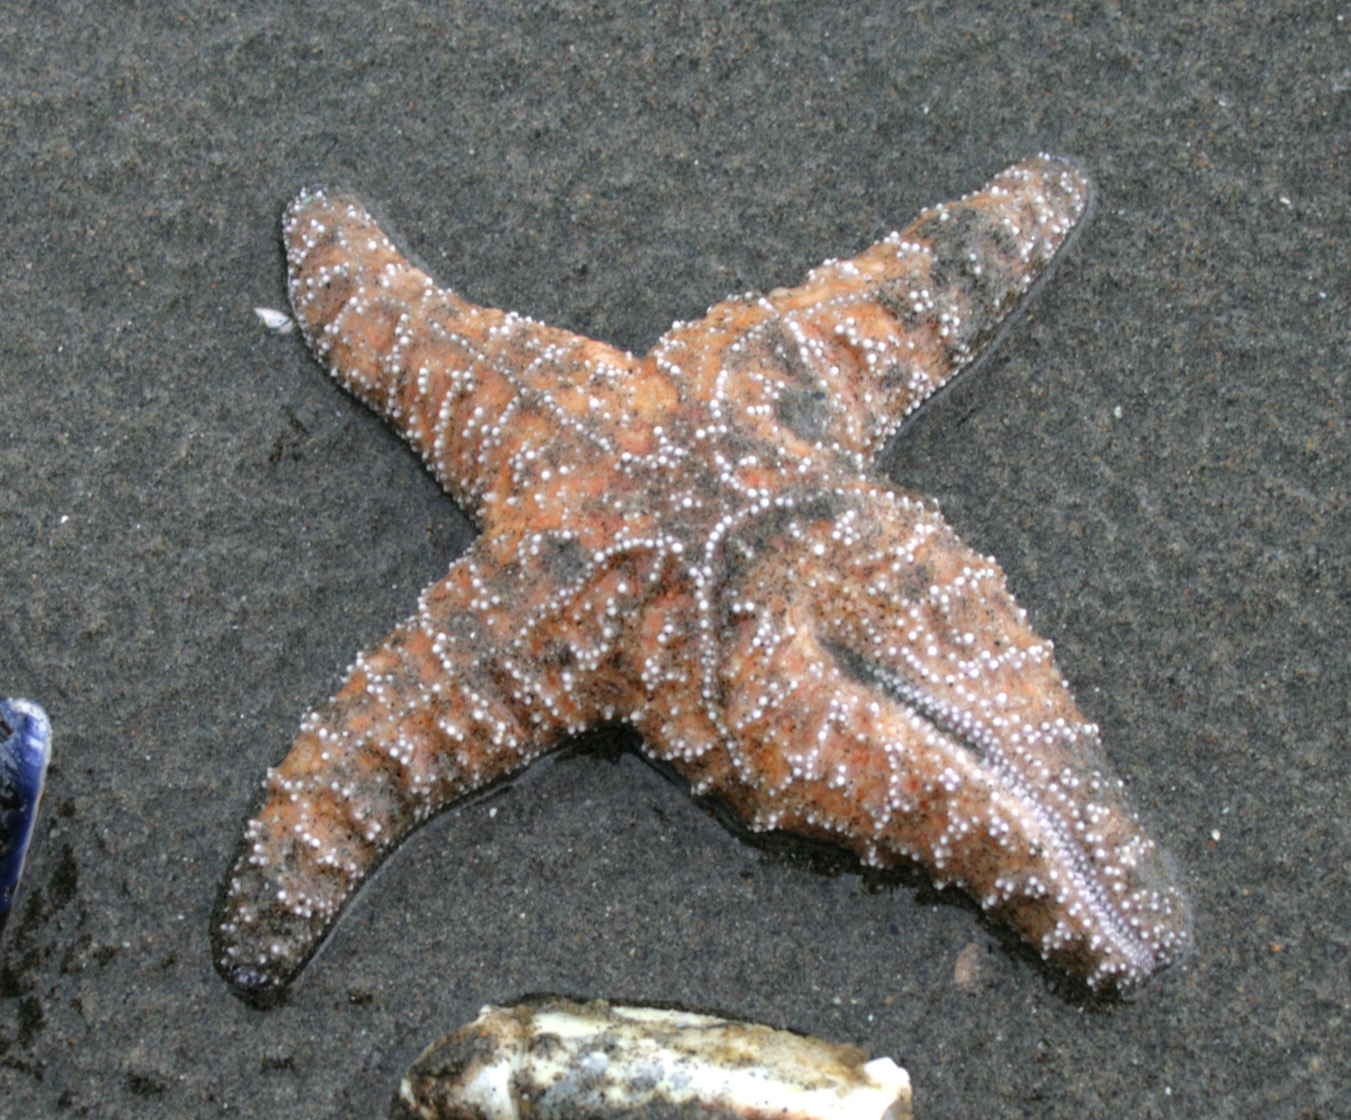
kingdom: Animalia
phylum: Echinodermata
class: Asteroidea
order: Forcipulatida
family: Asteriidae
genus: Pisaster
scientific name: Pisaster ochraceus
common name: Ochre stars
